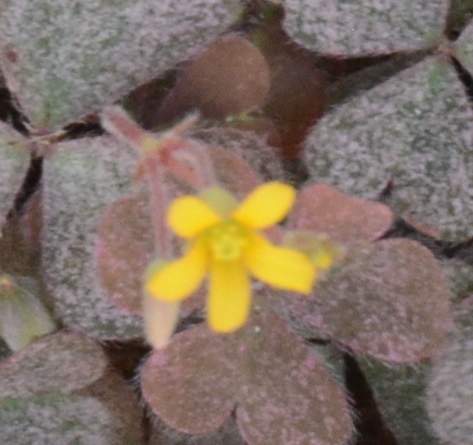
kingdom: Plantae
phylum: Tracheophyta
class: Magnoliopsida
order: Oxalidales
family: Oxalidaceae
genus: Oxalis
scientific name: Oxalis corniculata
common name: Procumbent yellow-sorrel
